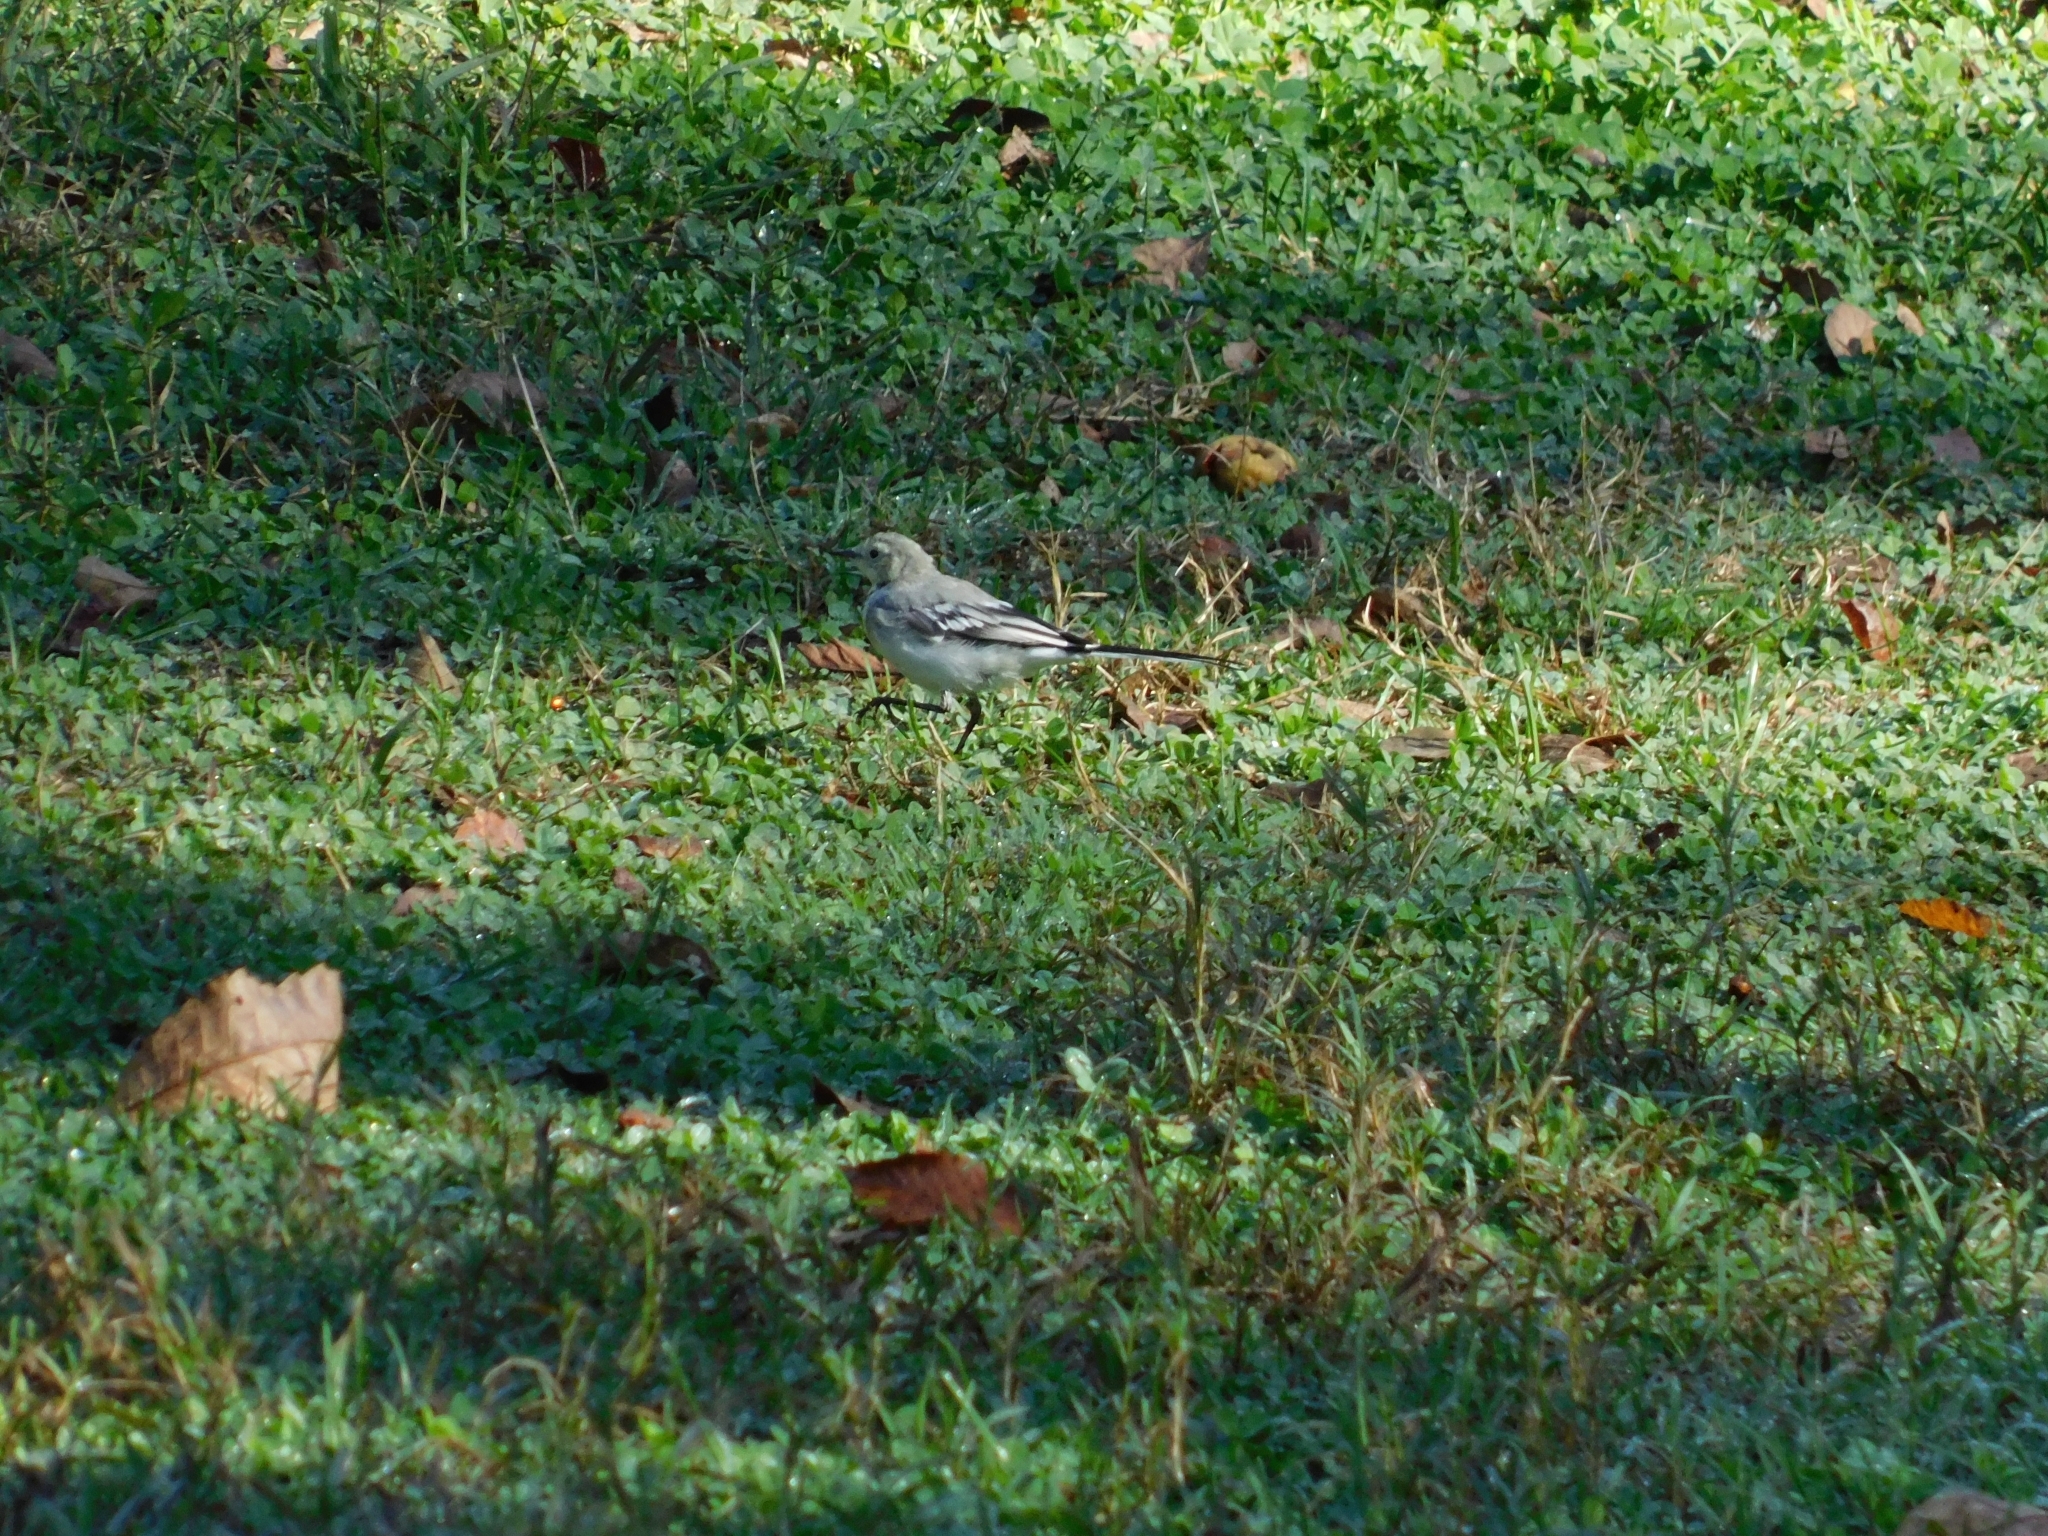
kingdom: Animalia
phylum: Chordata
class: Aves
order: Passeriformes
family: Motacillidae
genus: Motacilla
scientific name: Motacilla alba
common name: White wagtail
